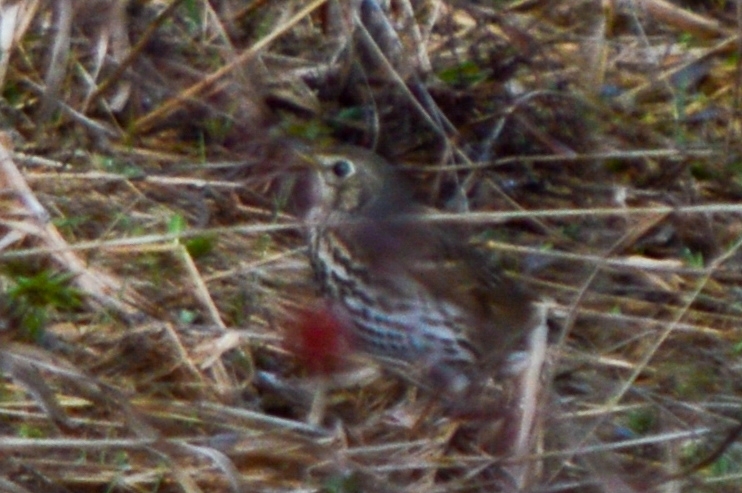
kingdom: Animalia
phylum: Chordata
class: Aves
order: Passeriformes
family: Turdidae
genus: Turdus
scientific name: Turdus philomelos
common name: Song thrush
